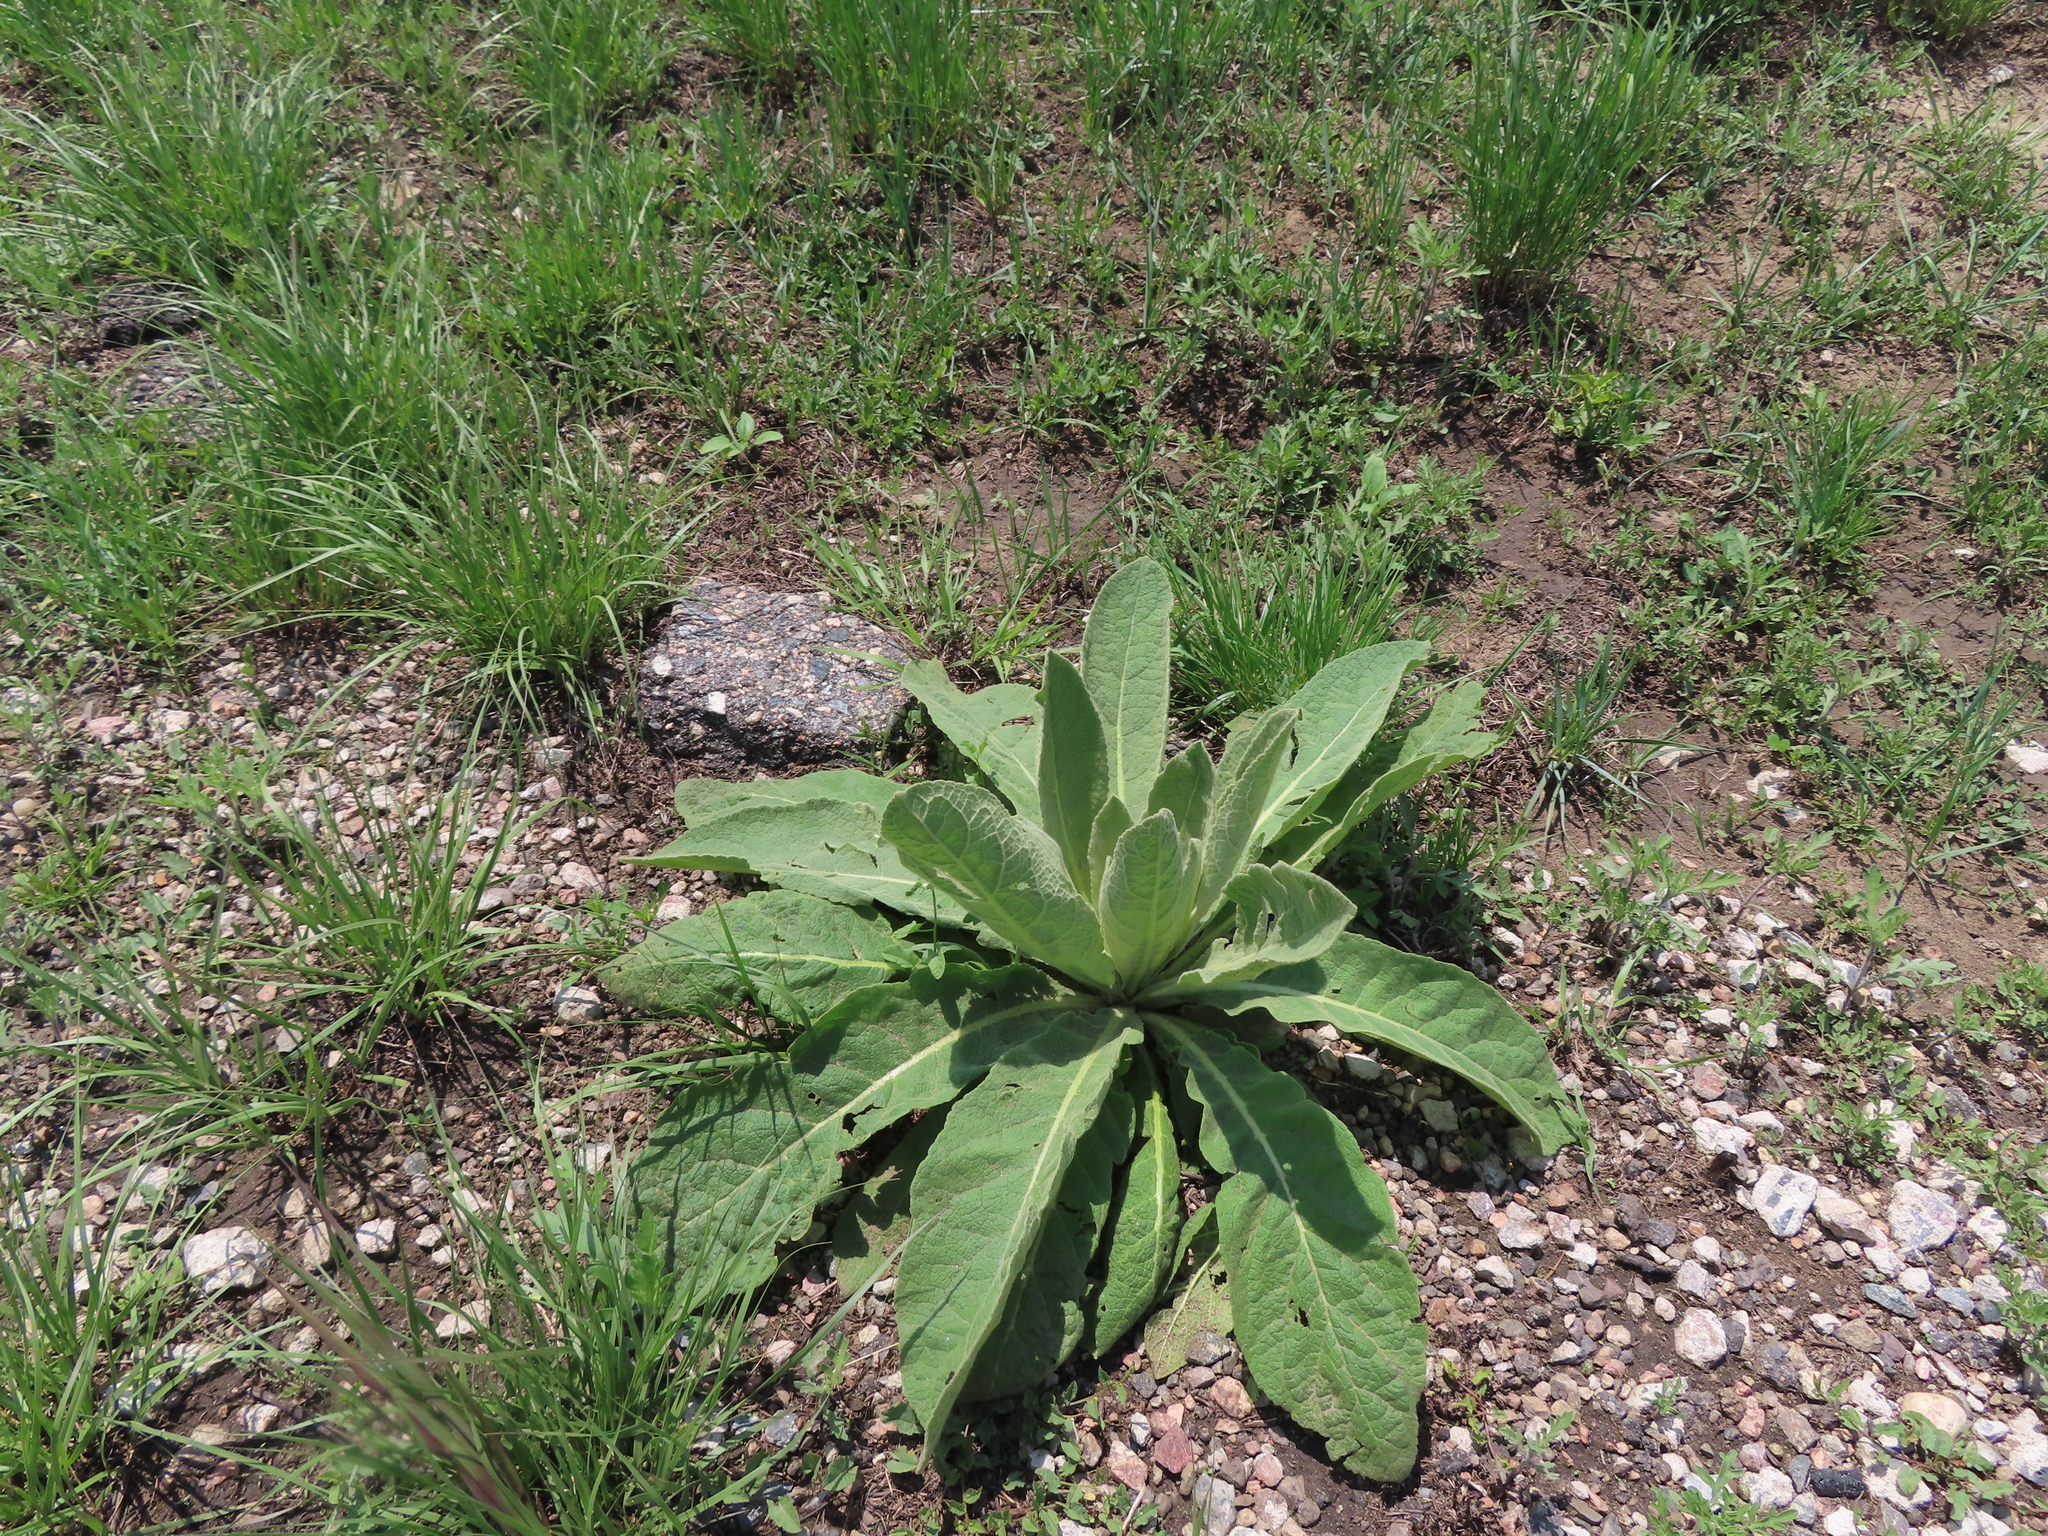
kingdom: Plantae
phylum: Tracheophyta
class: Magnoliopsida
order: Lamiales
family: Scrophulariaceae
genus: Verbascum
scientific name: Verbascum thapsus
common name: Common mullein
